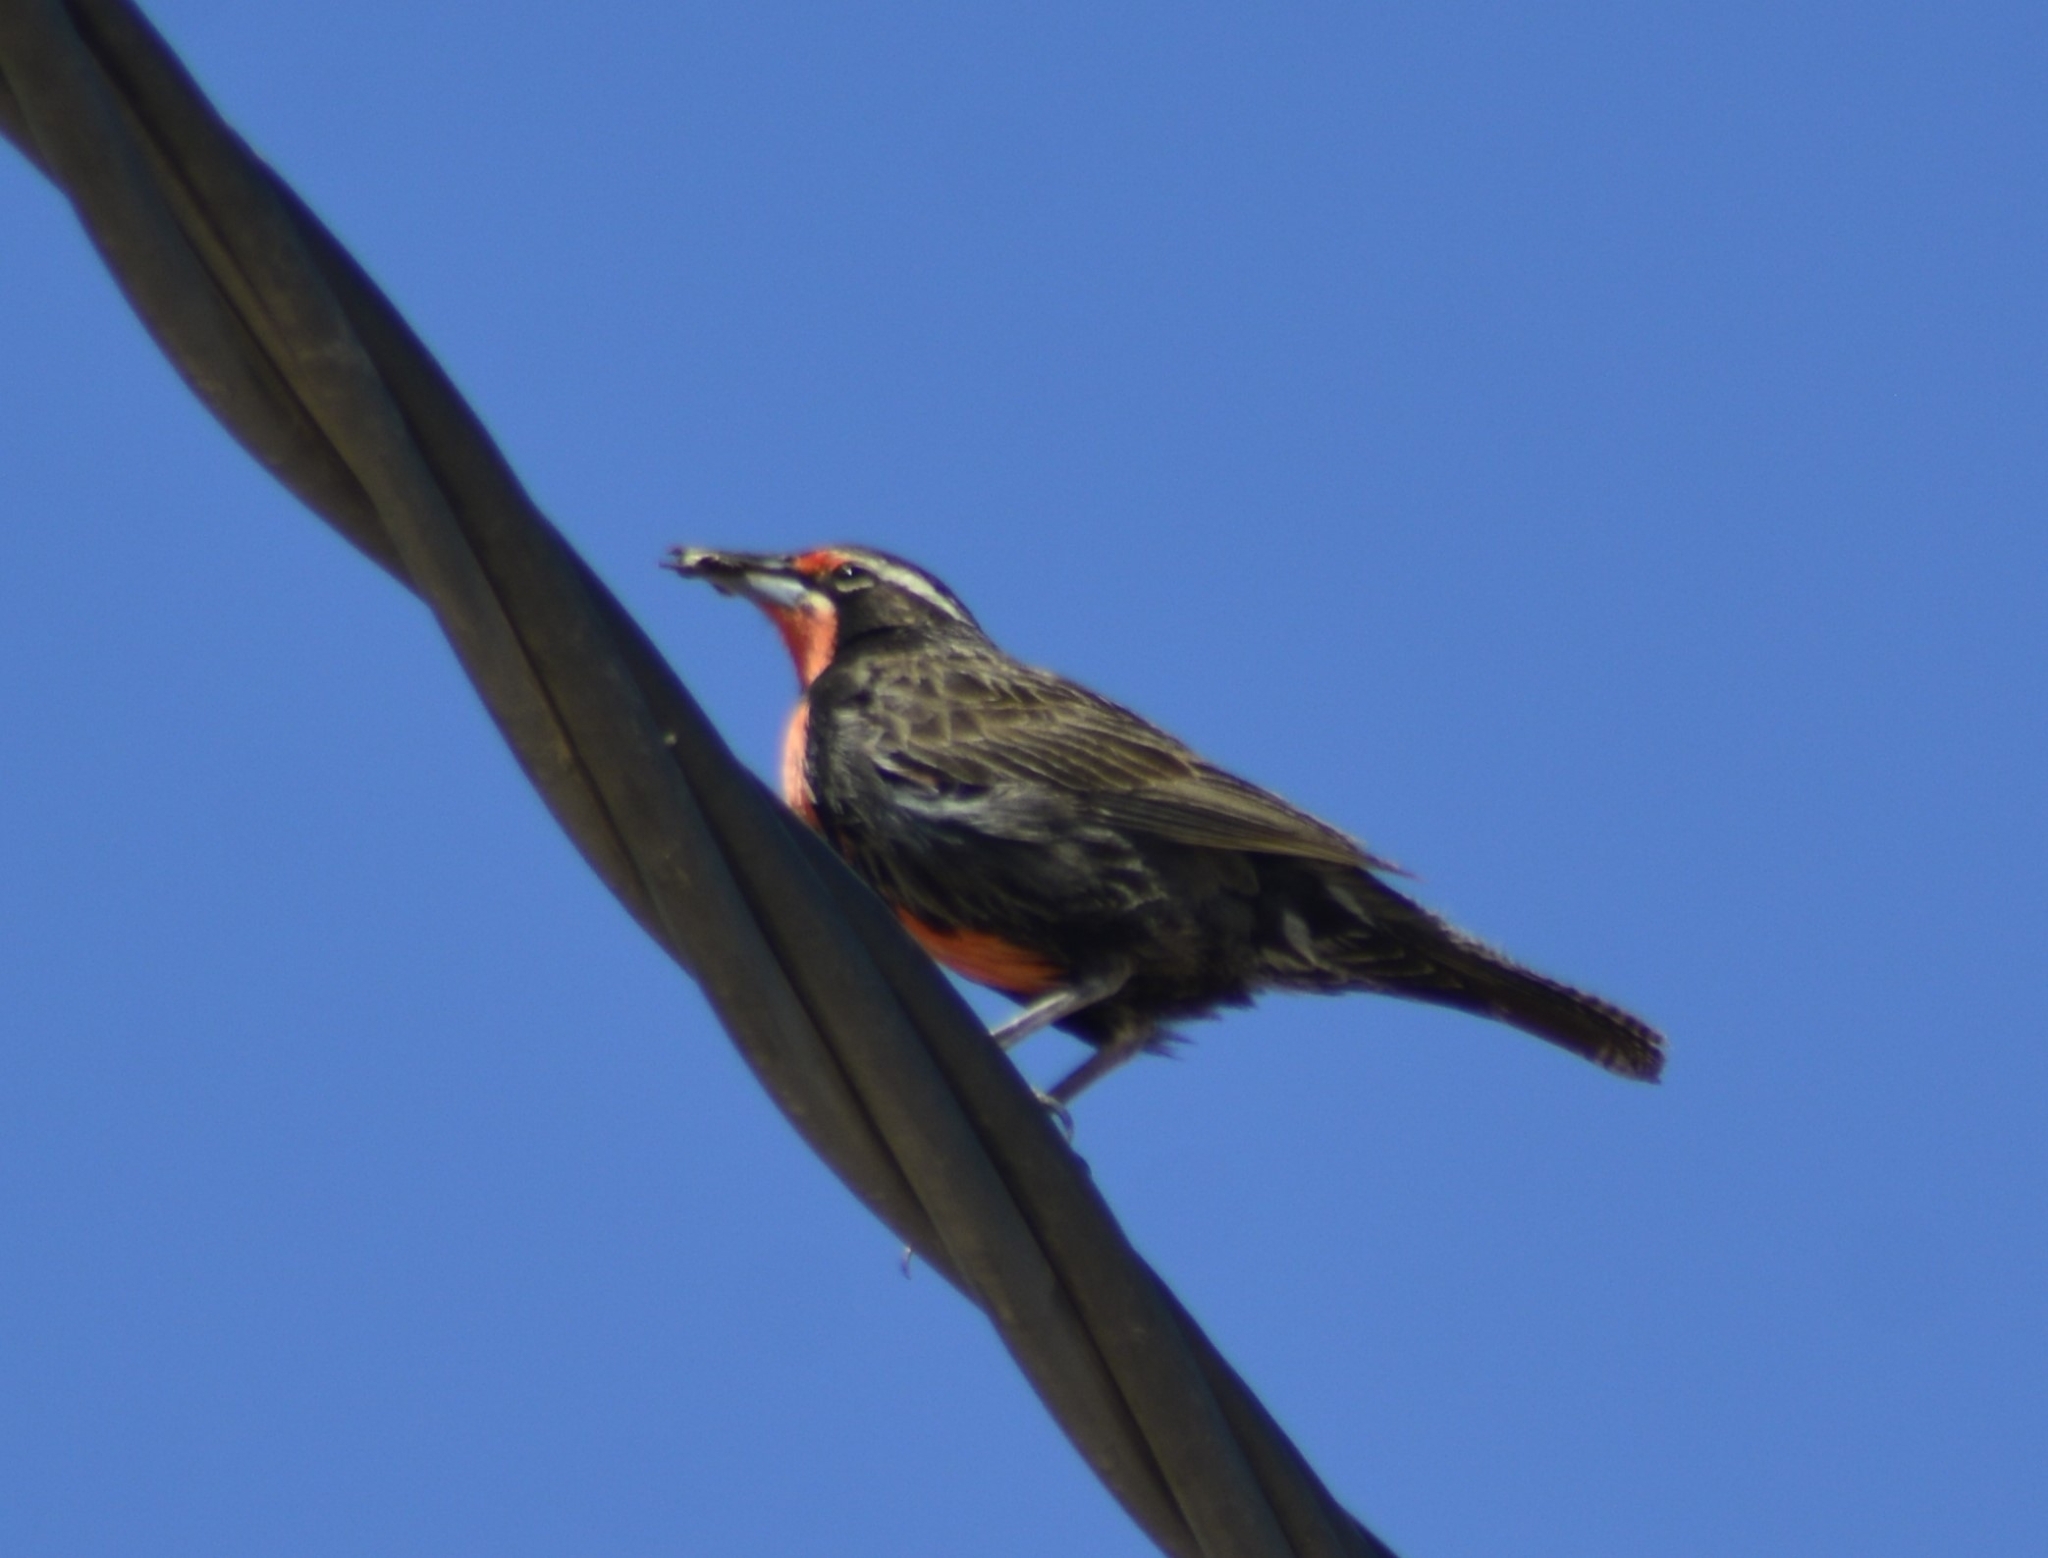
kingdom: Animalia
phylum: Chordata
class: Aves
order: Passeriformes
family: Icteridae
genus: Sturnella
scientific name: Sturnella loyca
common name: Long-tailed meadowlark
